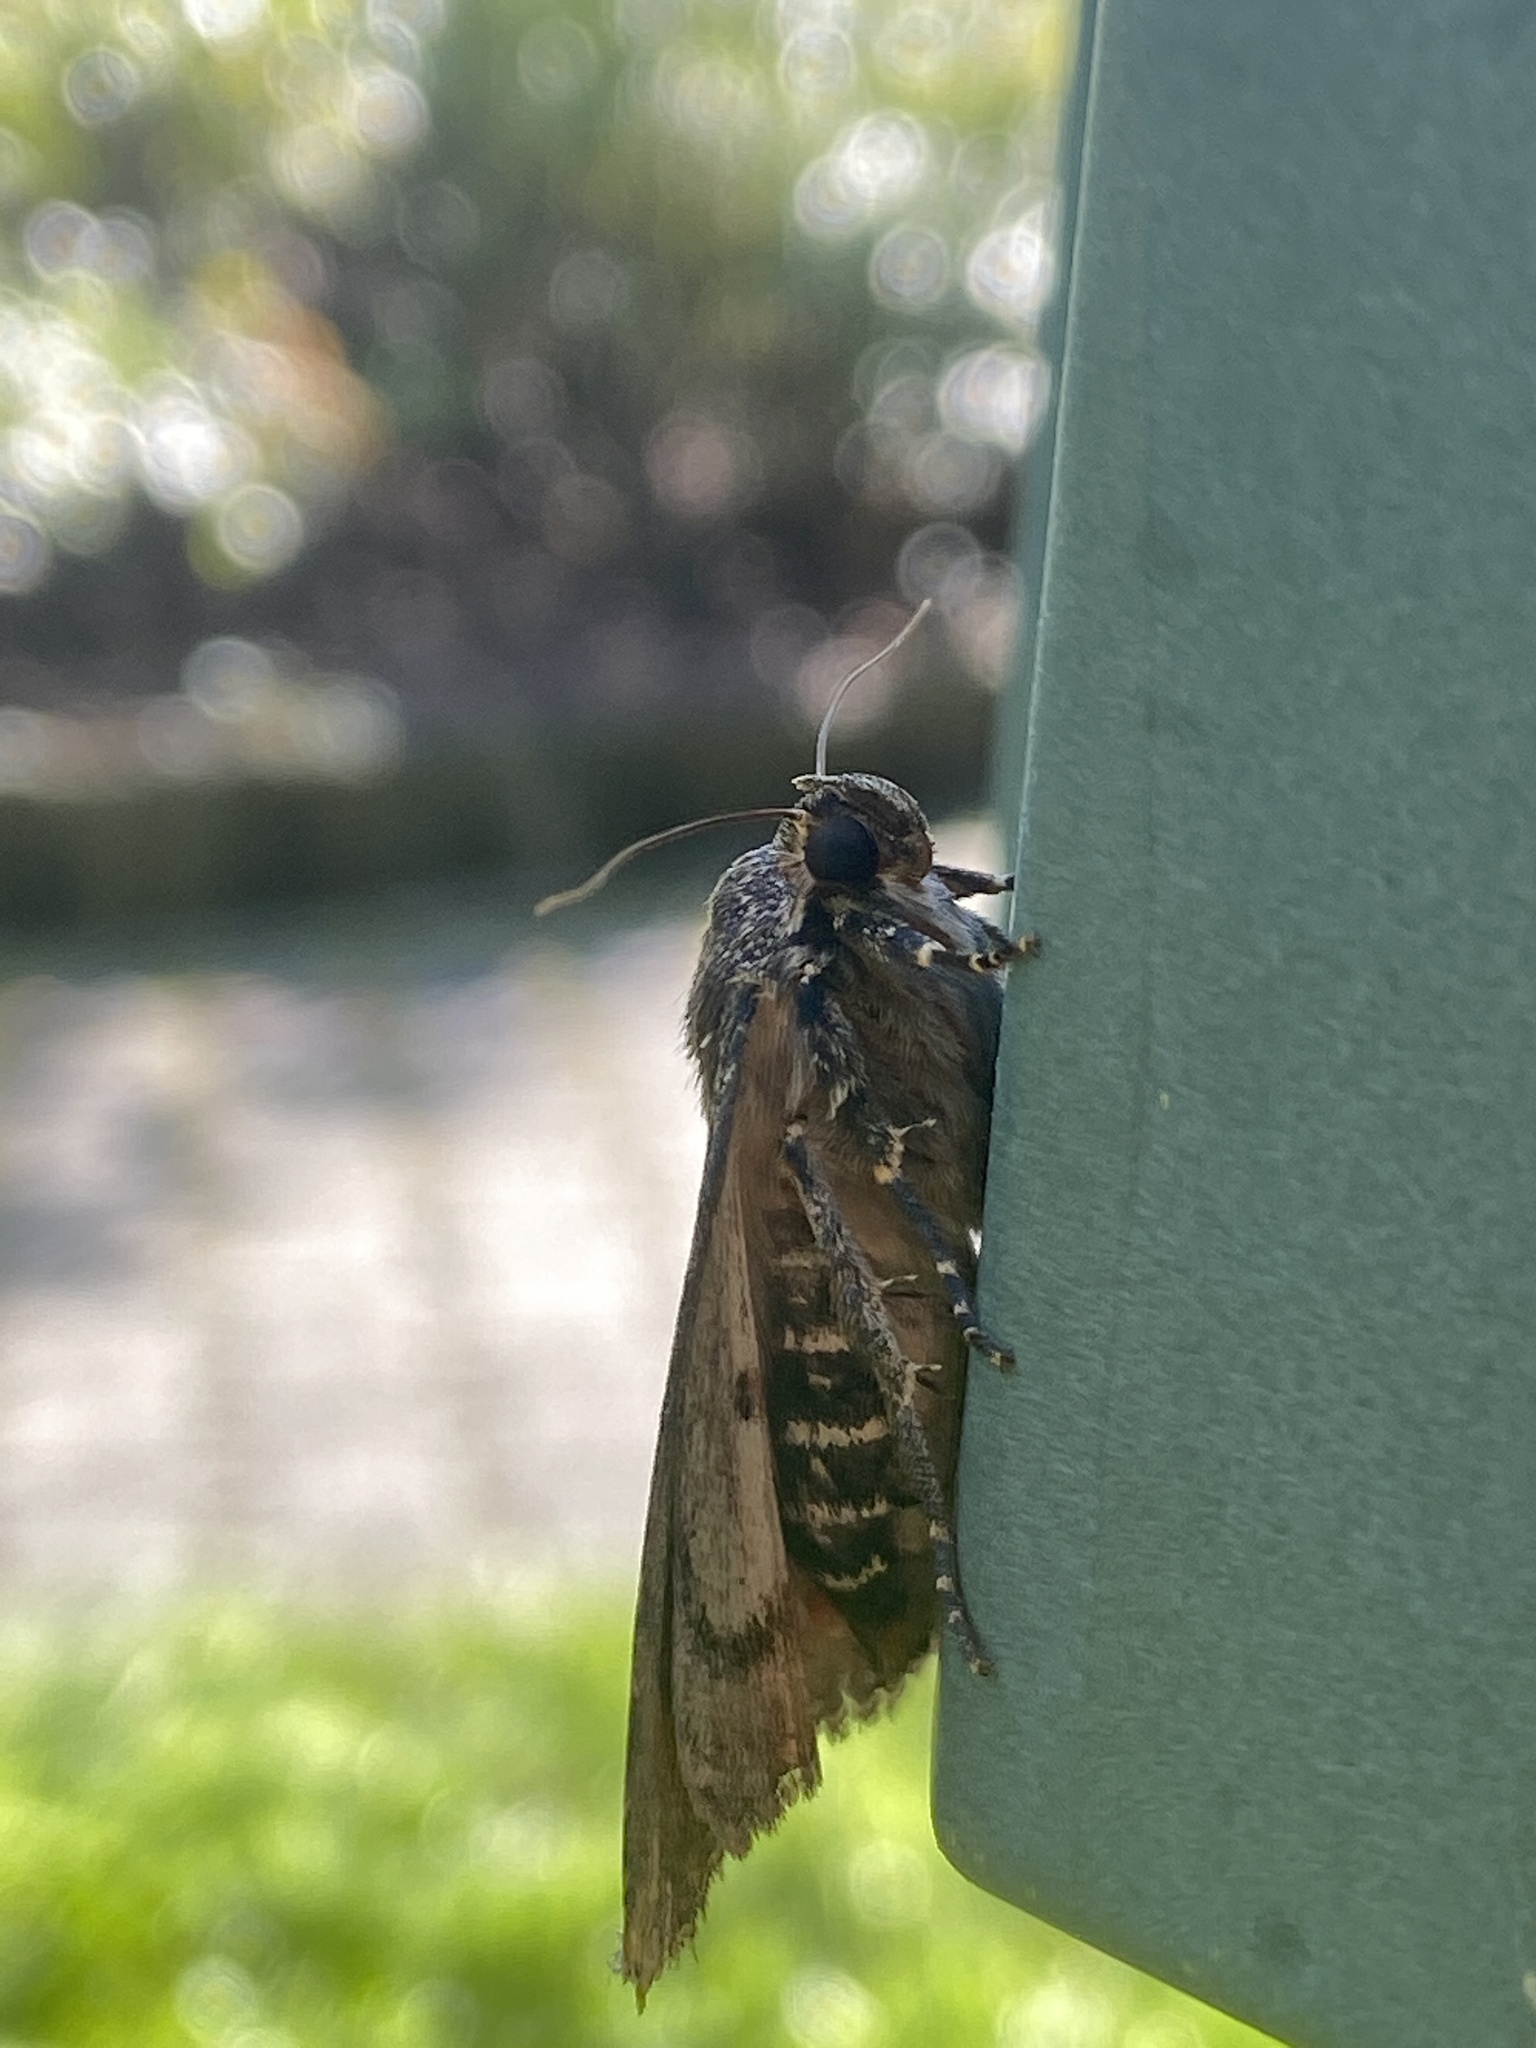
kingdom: Animalia
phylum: Arthropoda
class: Insecta
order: Lepidoptera
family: Noctuidae
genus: Amphipyra
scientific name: Amphipyra pyramidea
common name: Copper underwing
